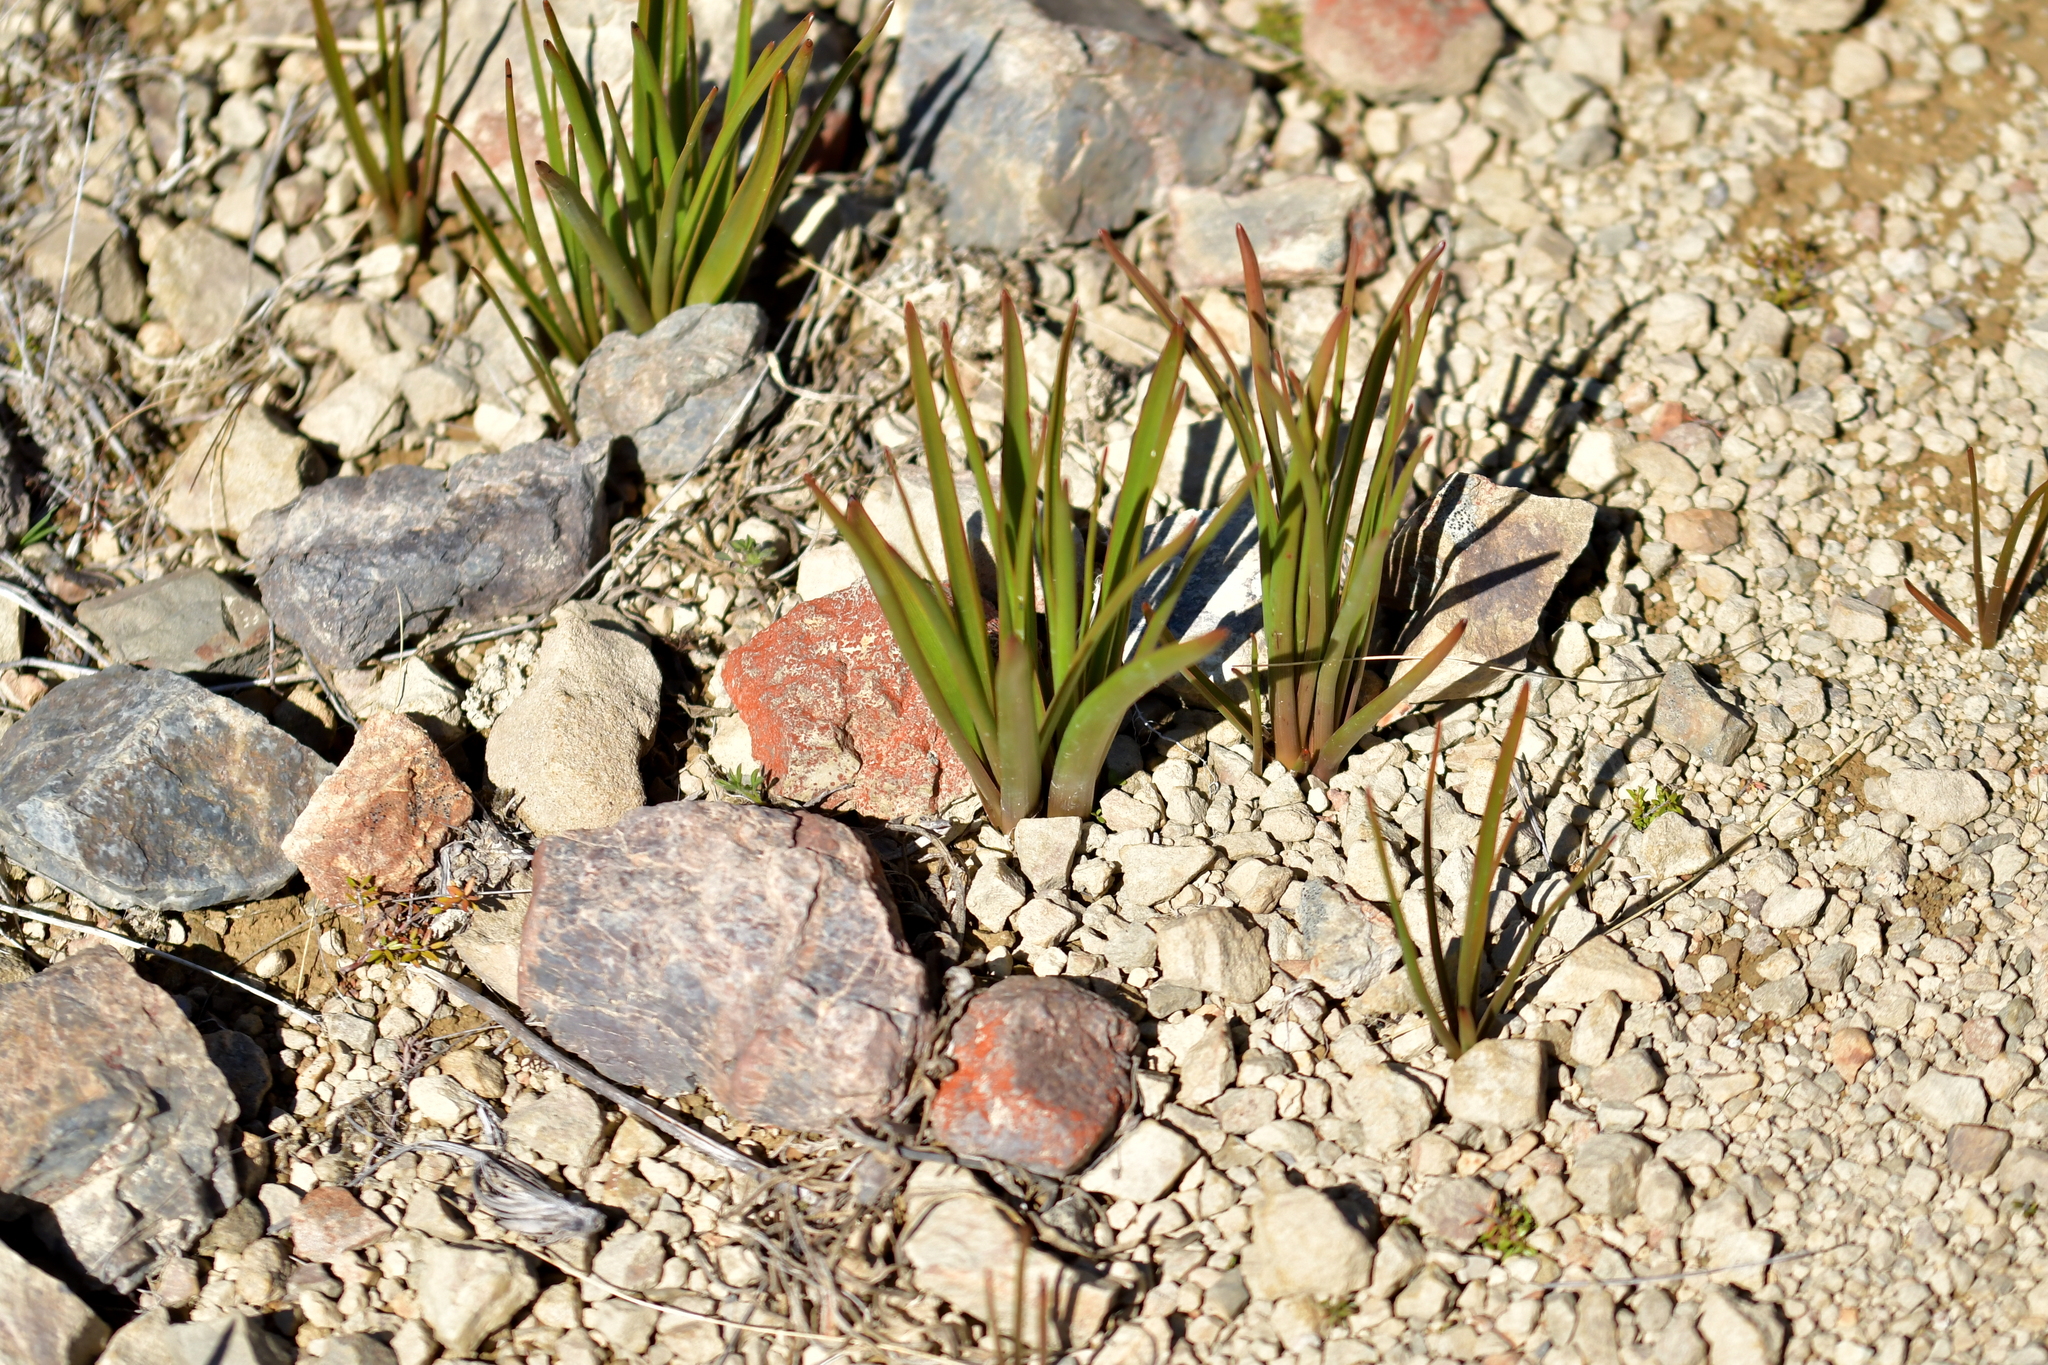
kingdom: Plantae
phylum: Tracheophyta
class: Liliopsida
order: Asparagales
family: Asphodelaceae
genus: Bulbinella
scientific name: Bulbinella hookeri
